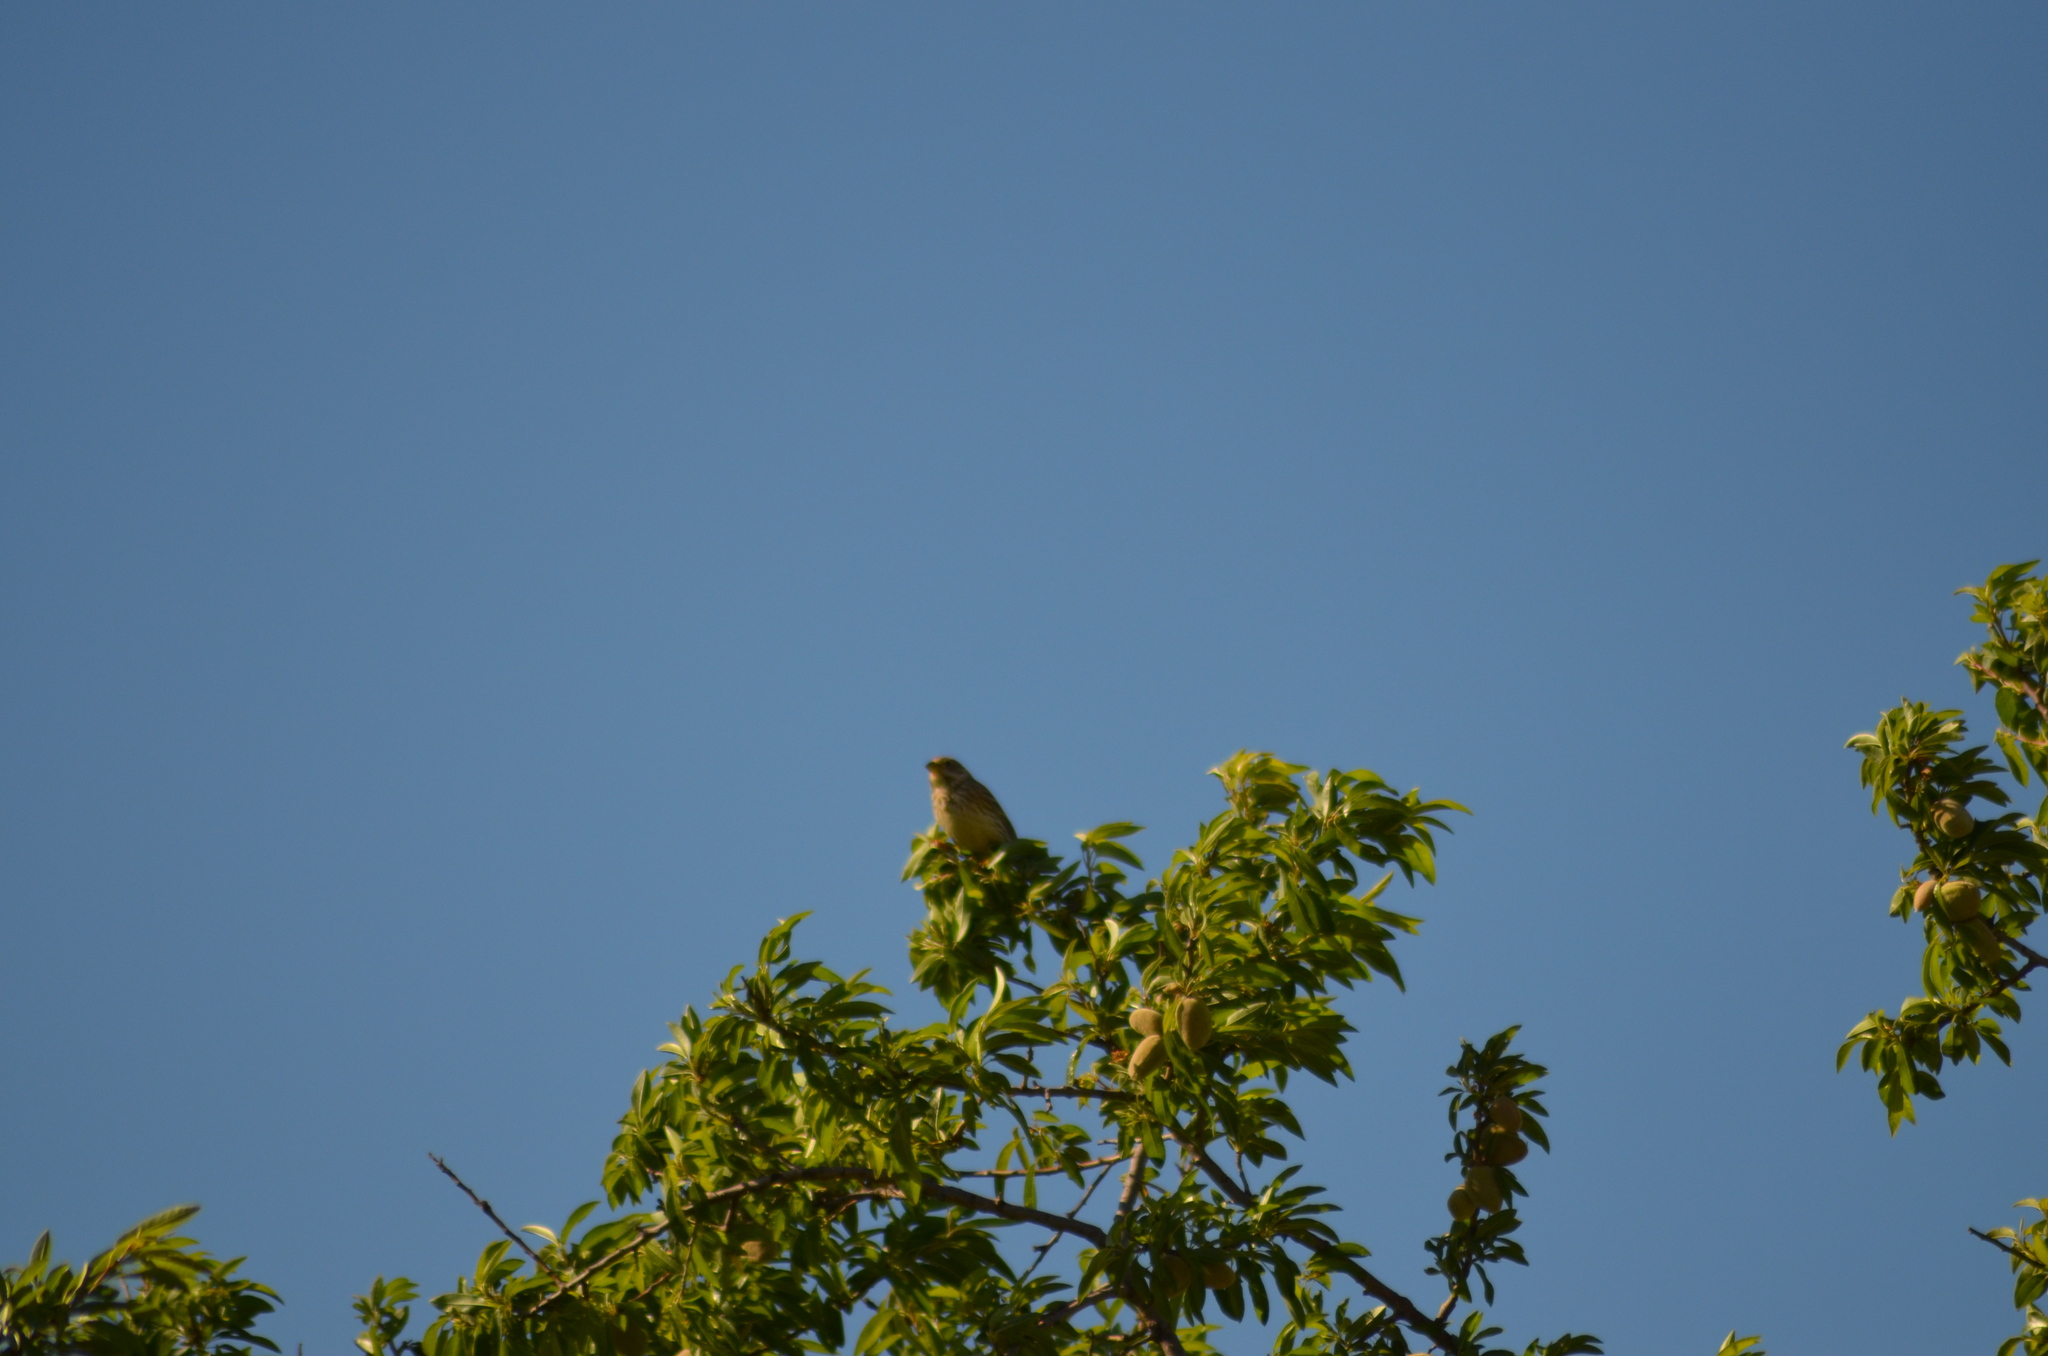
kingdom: Animalia
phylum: Chordata
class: Aves
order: Passeriformes
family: Emberizidae
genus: Emberiza
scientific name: Emberiza calandra
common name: Corn bunting
